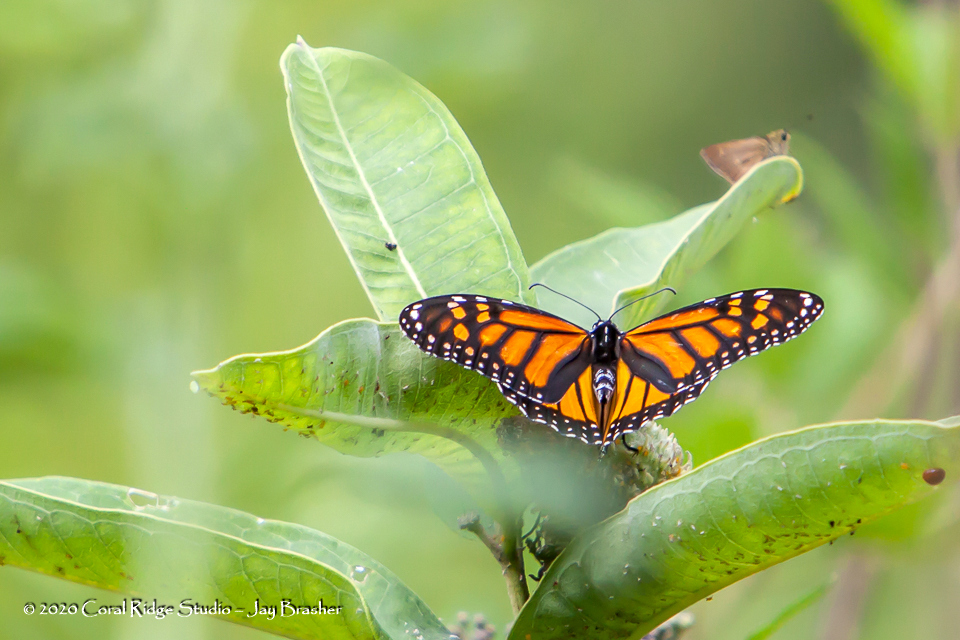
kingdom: Animalia
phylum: Arthropoda
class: Insecta
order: Lepidoptera
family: Nymphalidae
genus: Danaus
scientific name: Danaus plexippus
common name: Monarch
